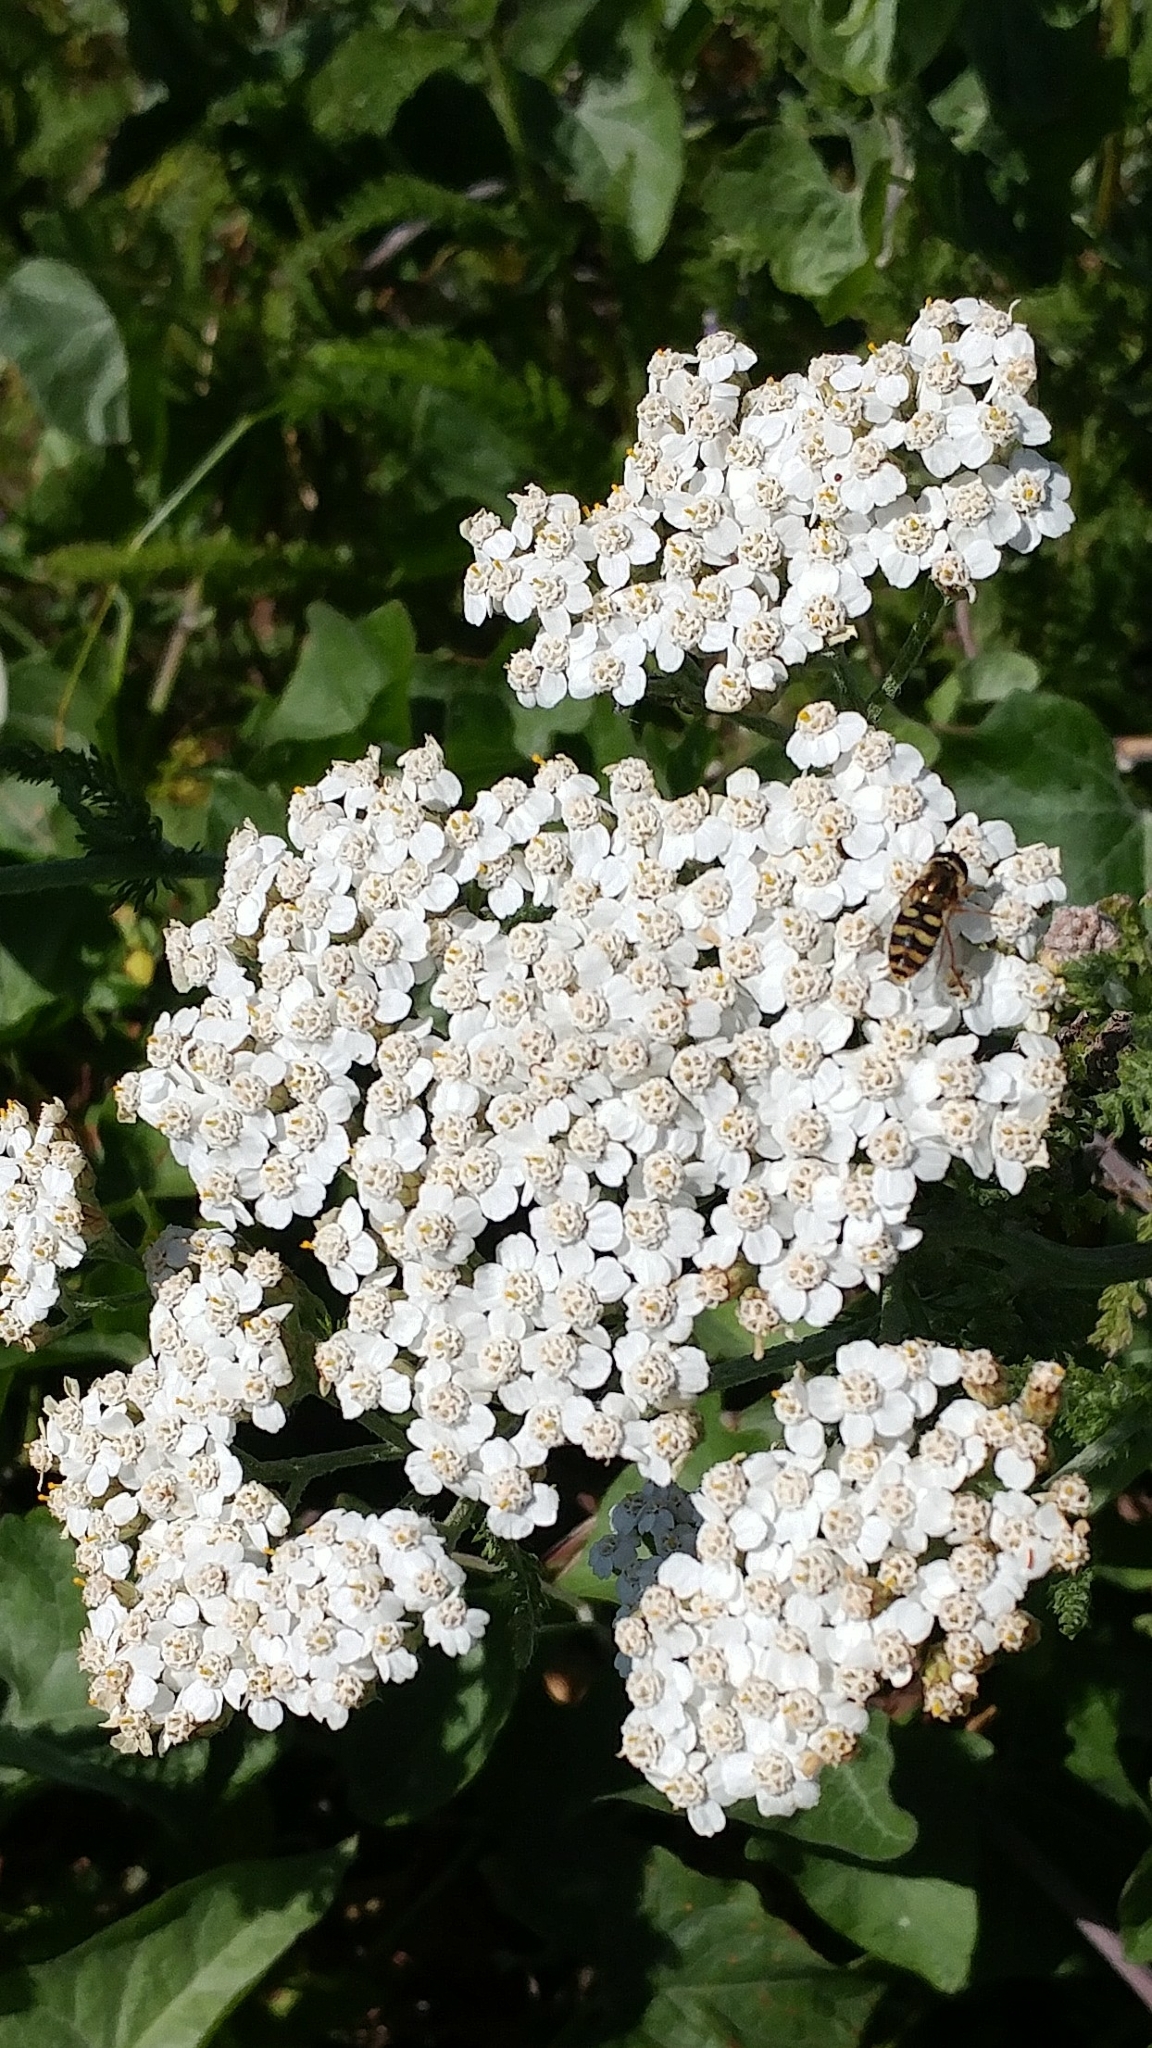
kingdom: Animalia
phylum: Arthropoda
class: Insecta
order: Diptera
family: Syrphidae
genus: Eupeodes
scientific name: Eupeodes fumipennis
